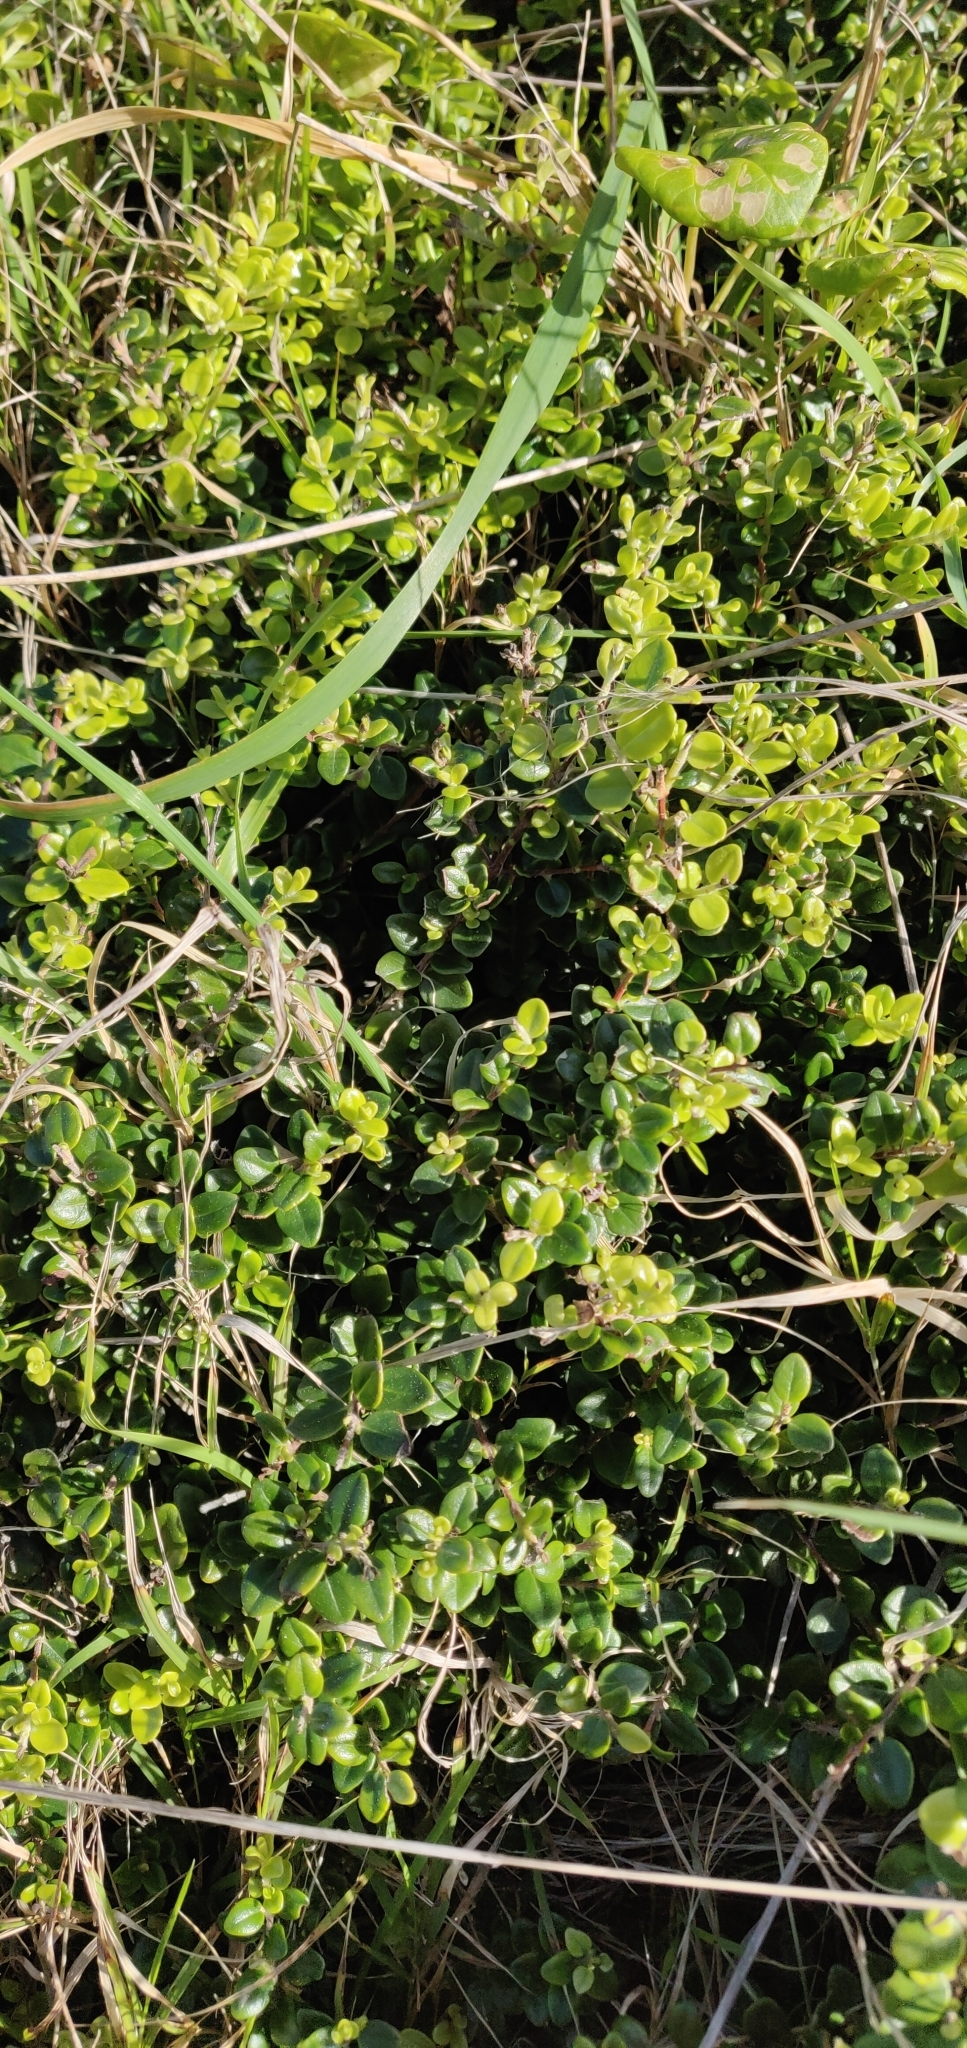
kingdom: Plantae
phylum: Tracheophyta
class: Magnoliopsida
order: Myrtales
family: Myrtaceae
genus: Metrosideros
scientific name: Metrosideros perforata
